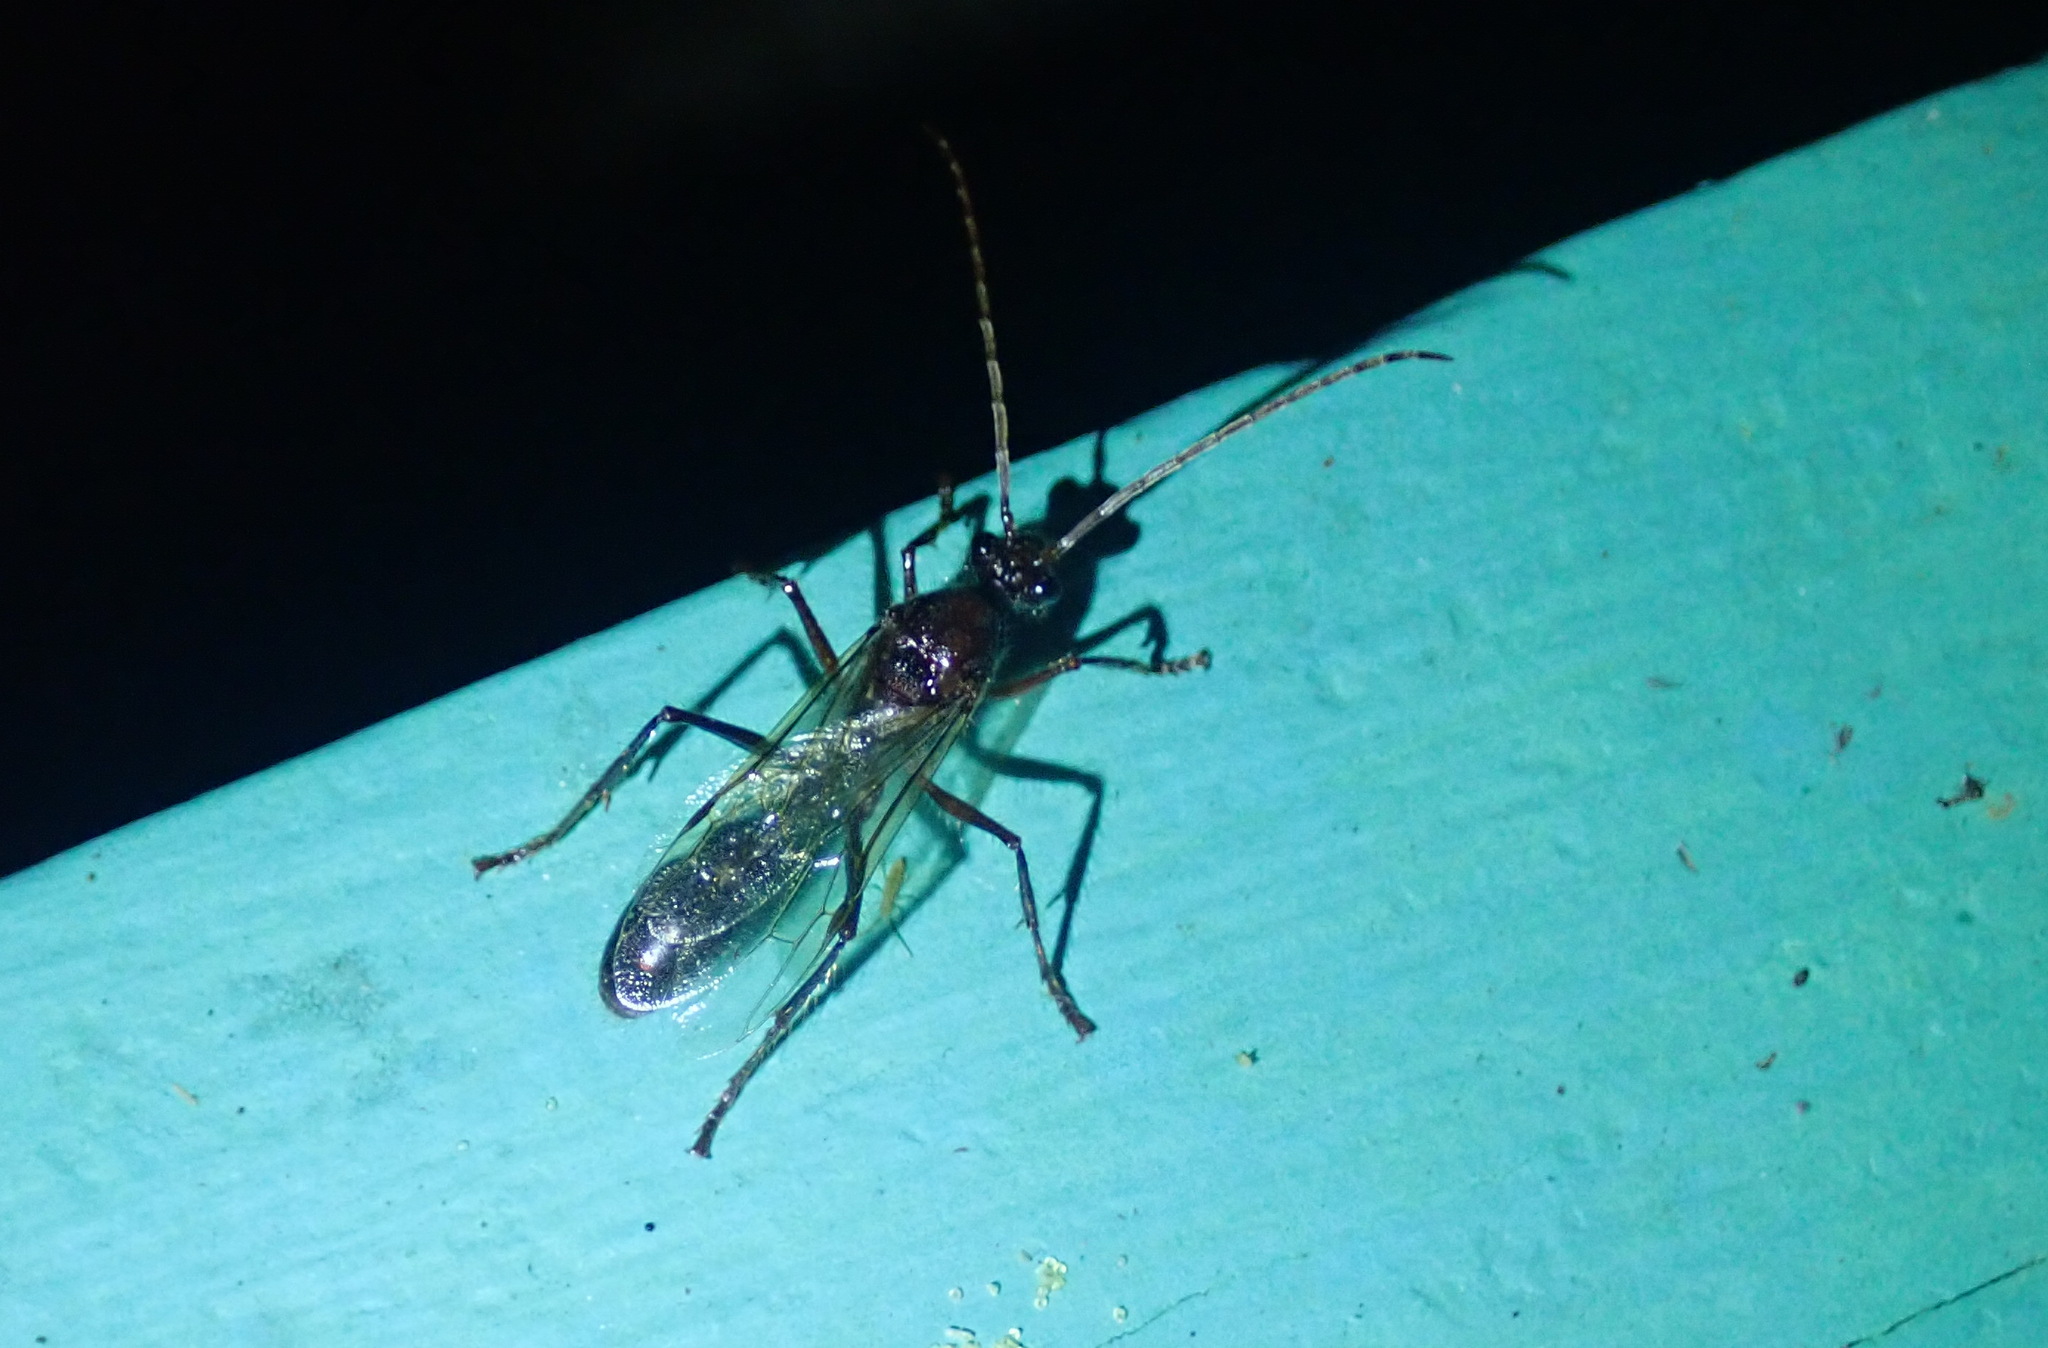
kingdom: Animalia
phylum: Arthropoda
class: Insecta
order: Hymenoptera
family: Formicidae
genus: Paraponera
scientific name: Paraponera clavata
